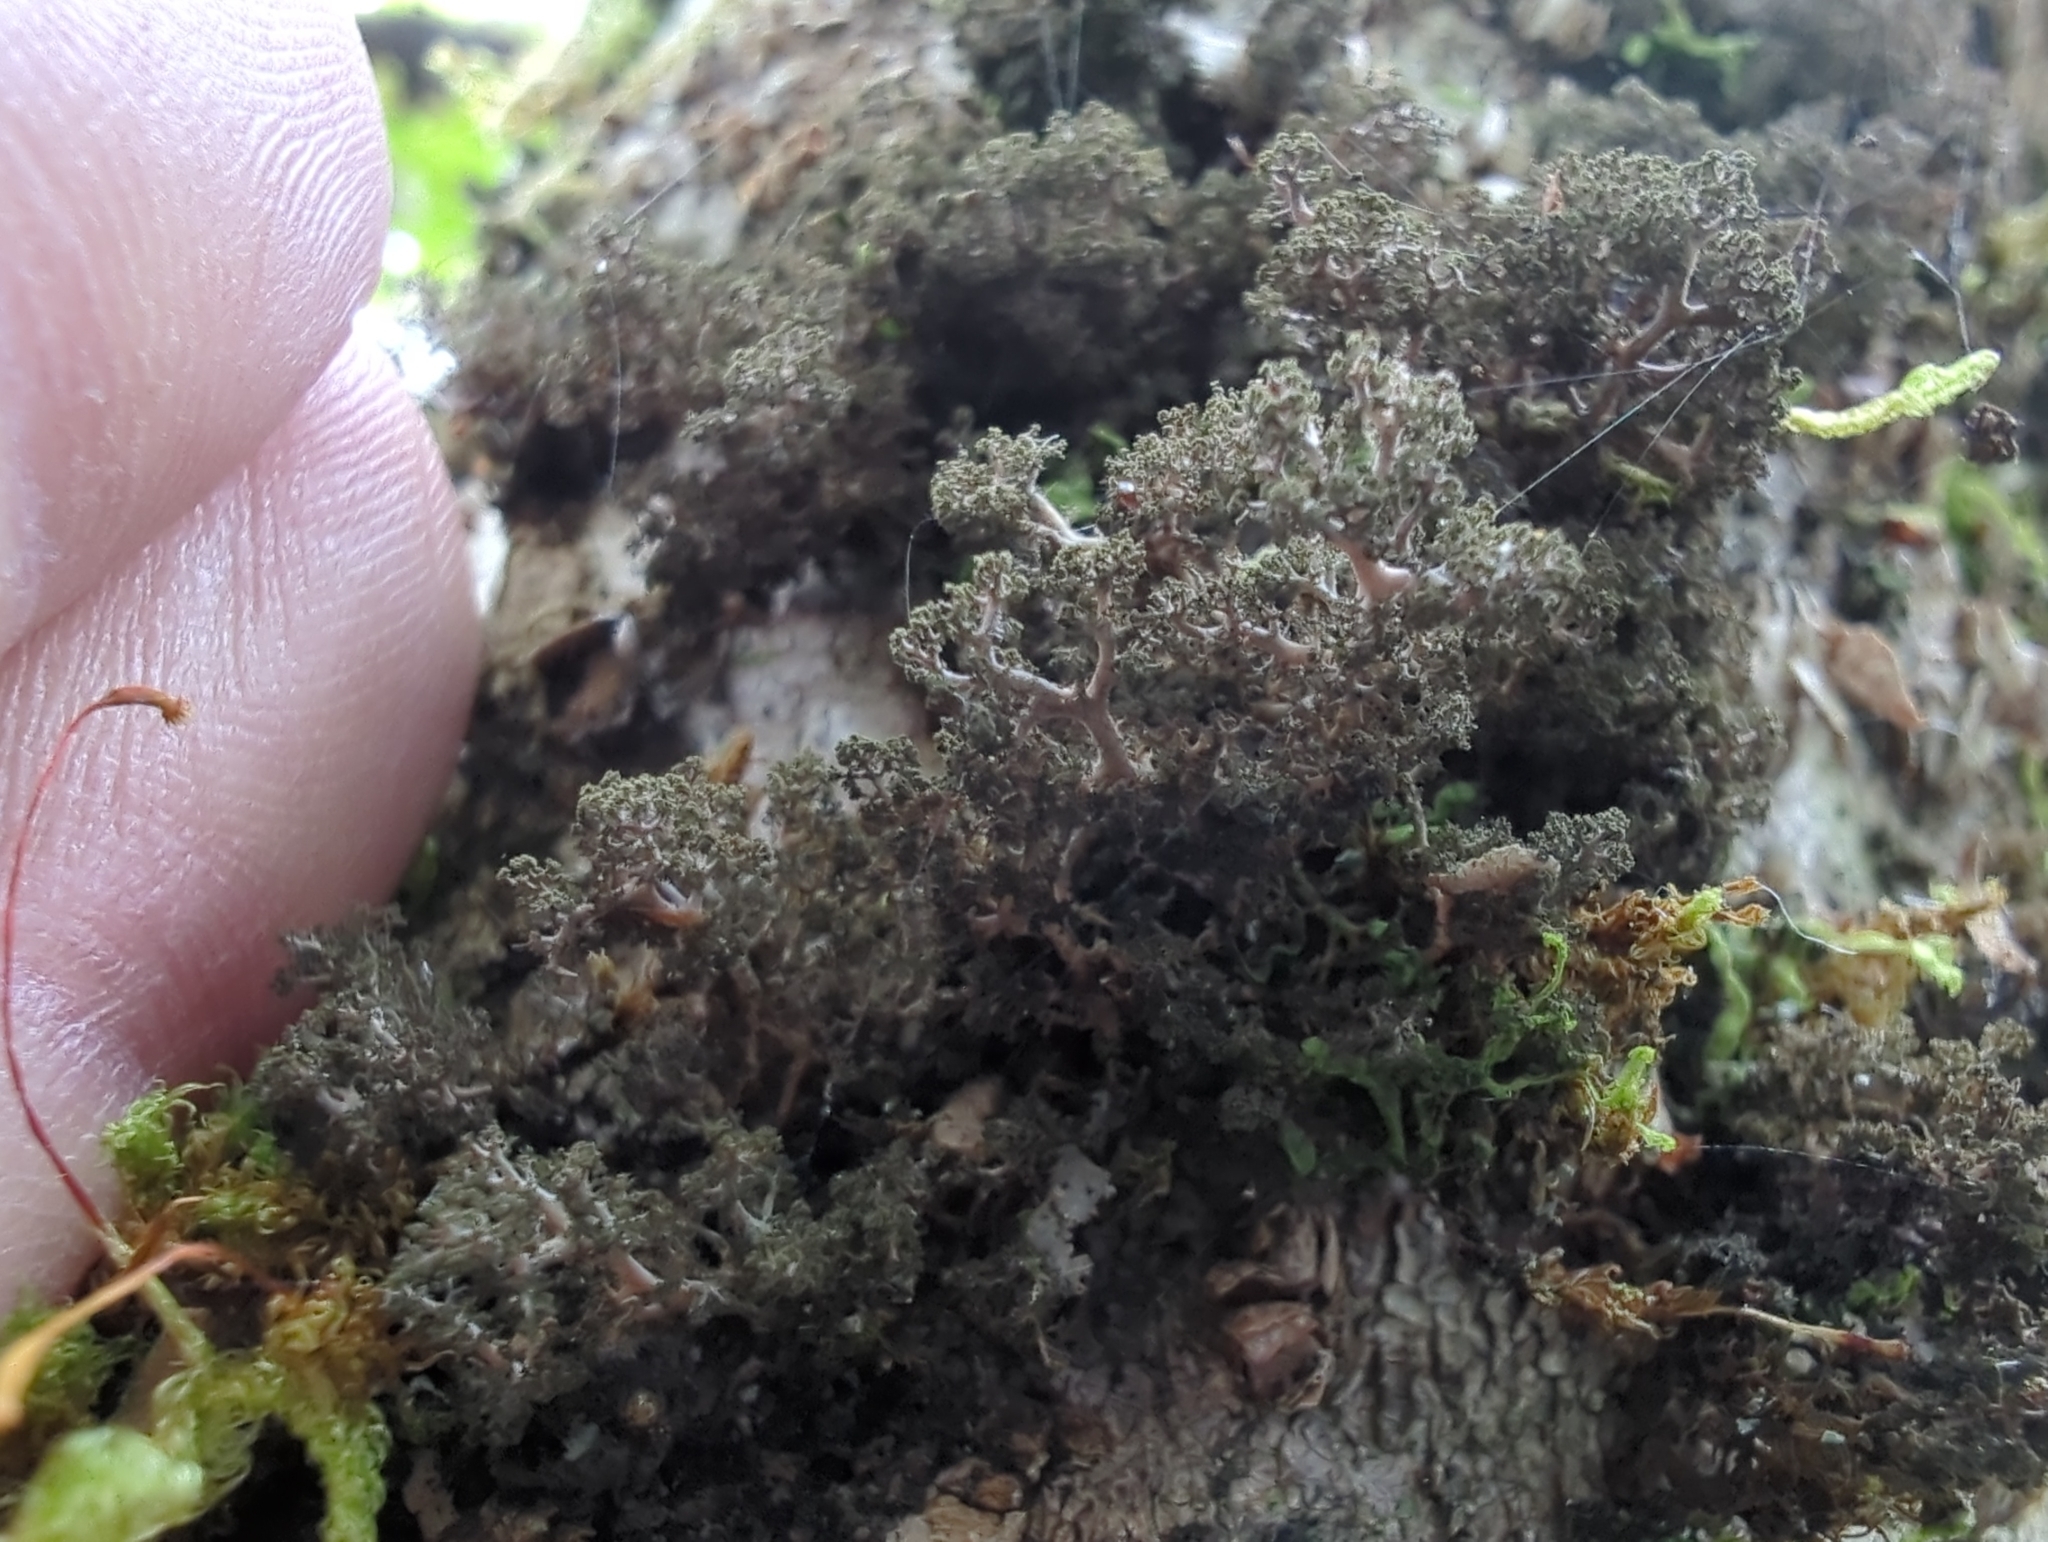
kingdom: Fungi
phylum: Ascomycota
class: Lecanoromycetes
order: Peltigerales
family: Lobariaceae
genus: Dendriscosticta
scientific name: Dendriscosticta gelida
